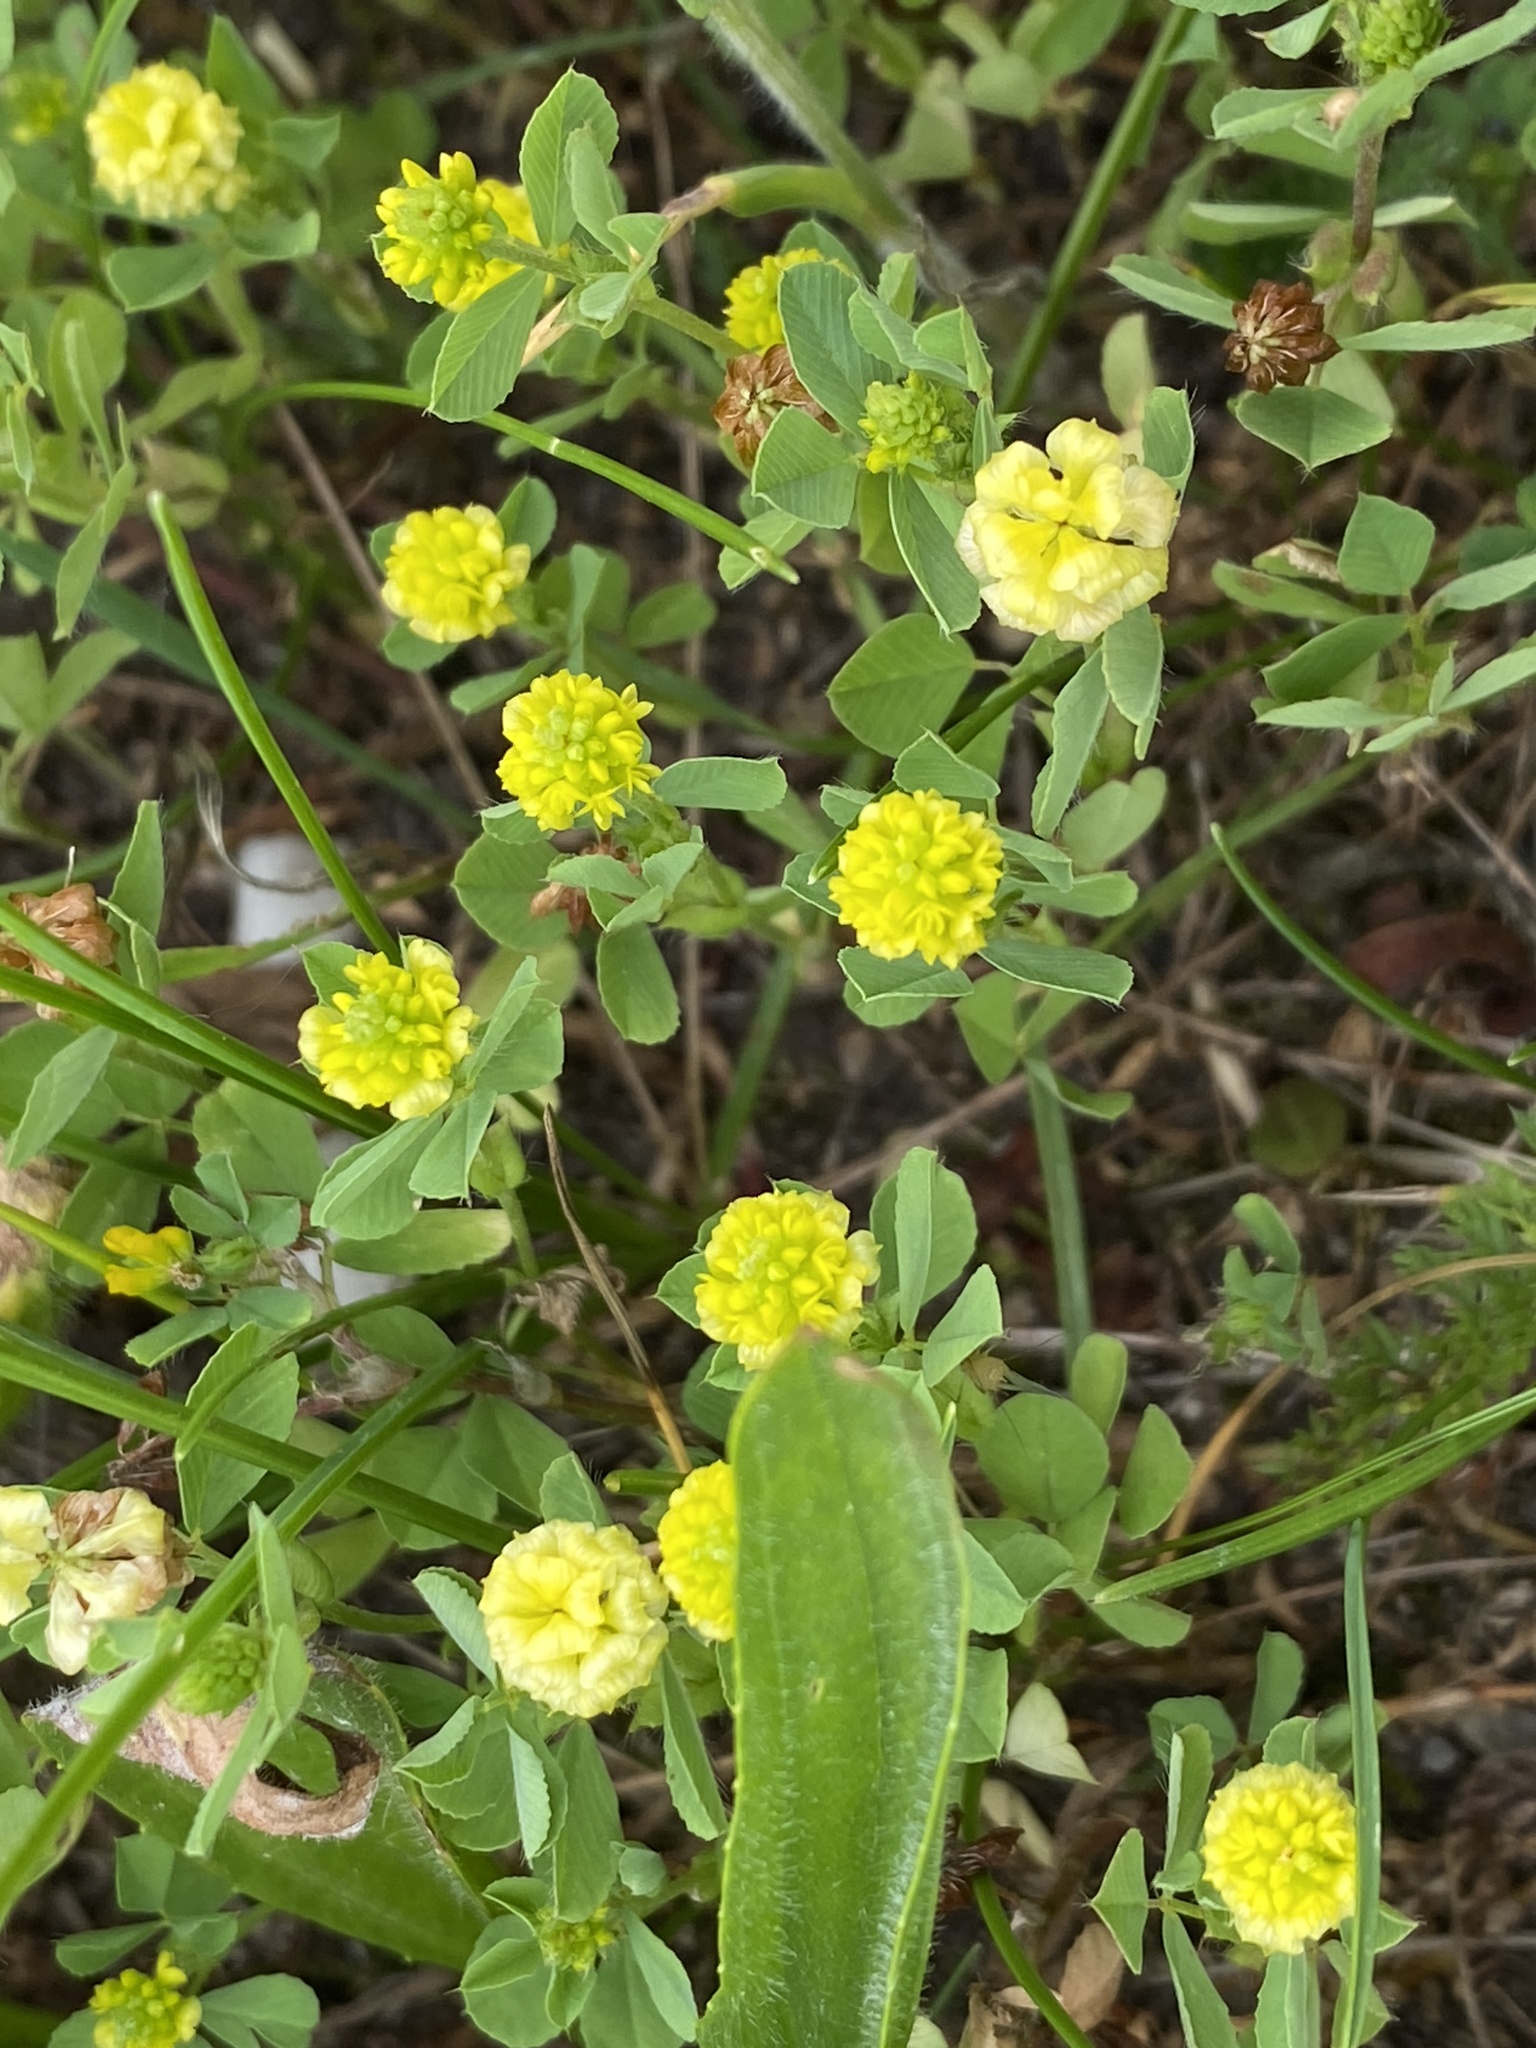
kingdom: Plantae
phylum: Tracheophyta
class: Magnoliopsida
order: Fabales
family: Fabaceae
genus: Trifolium
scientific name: Trifolium campestre
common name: Field clover
